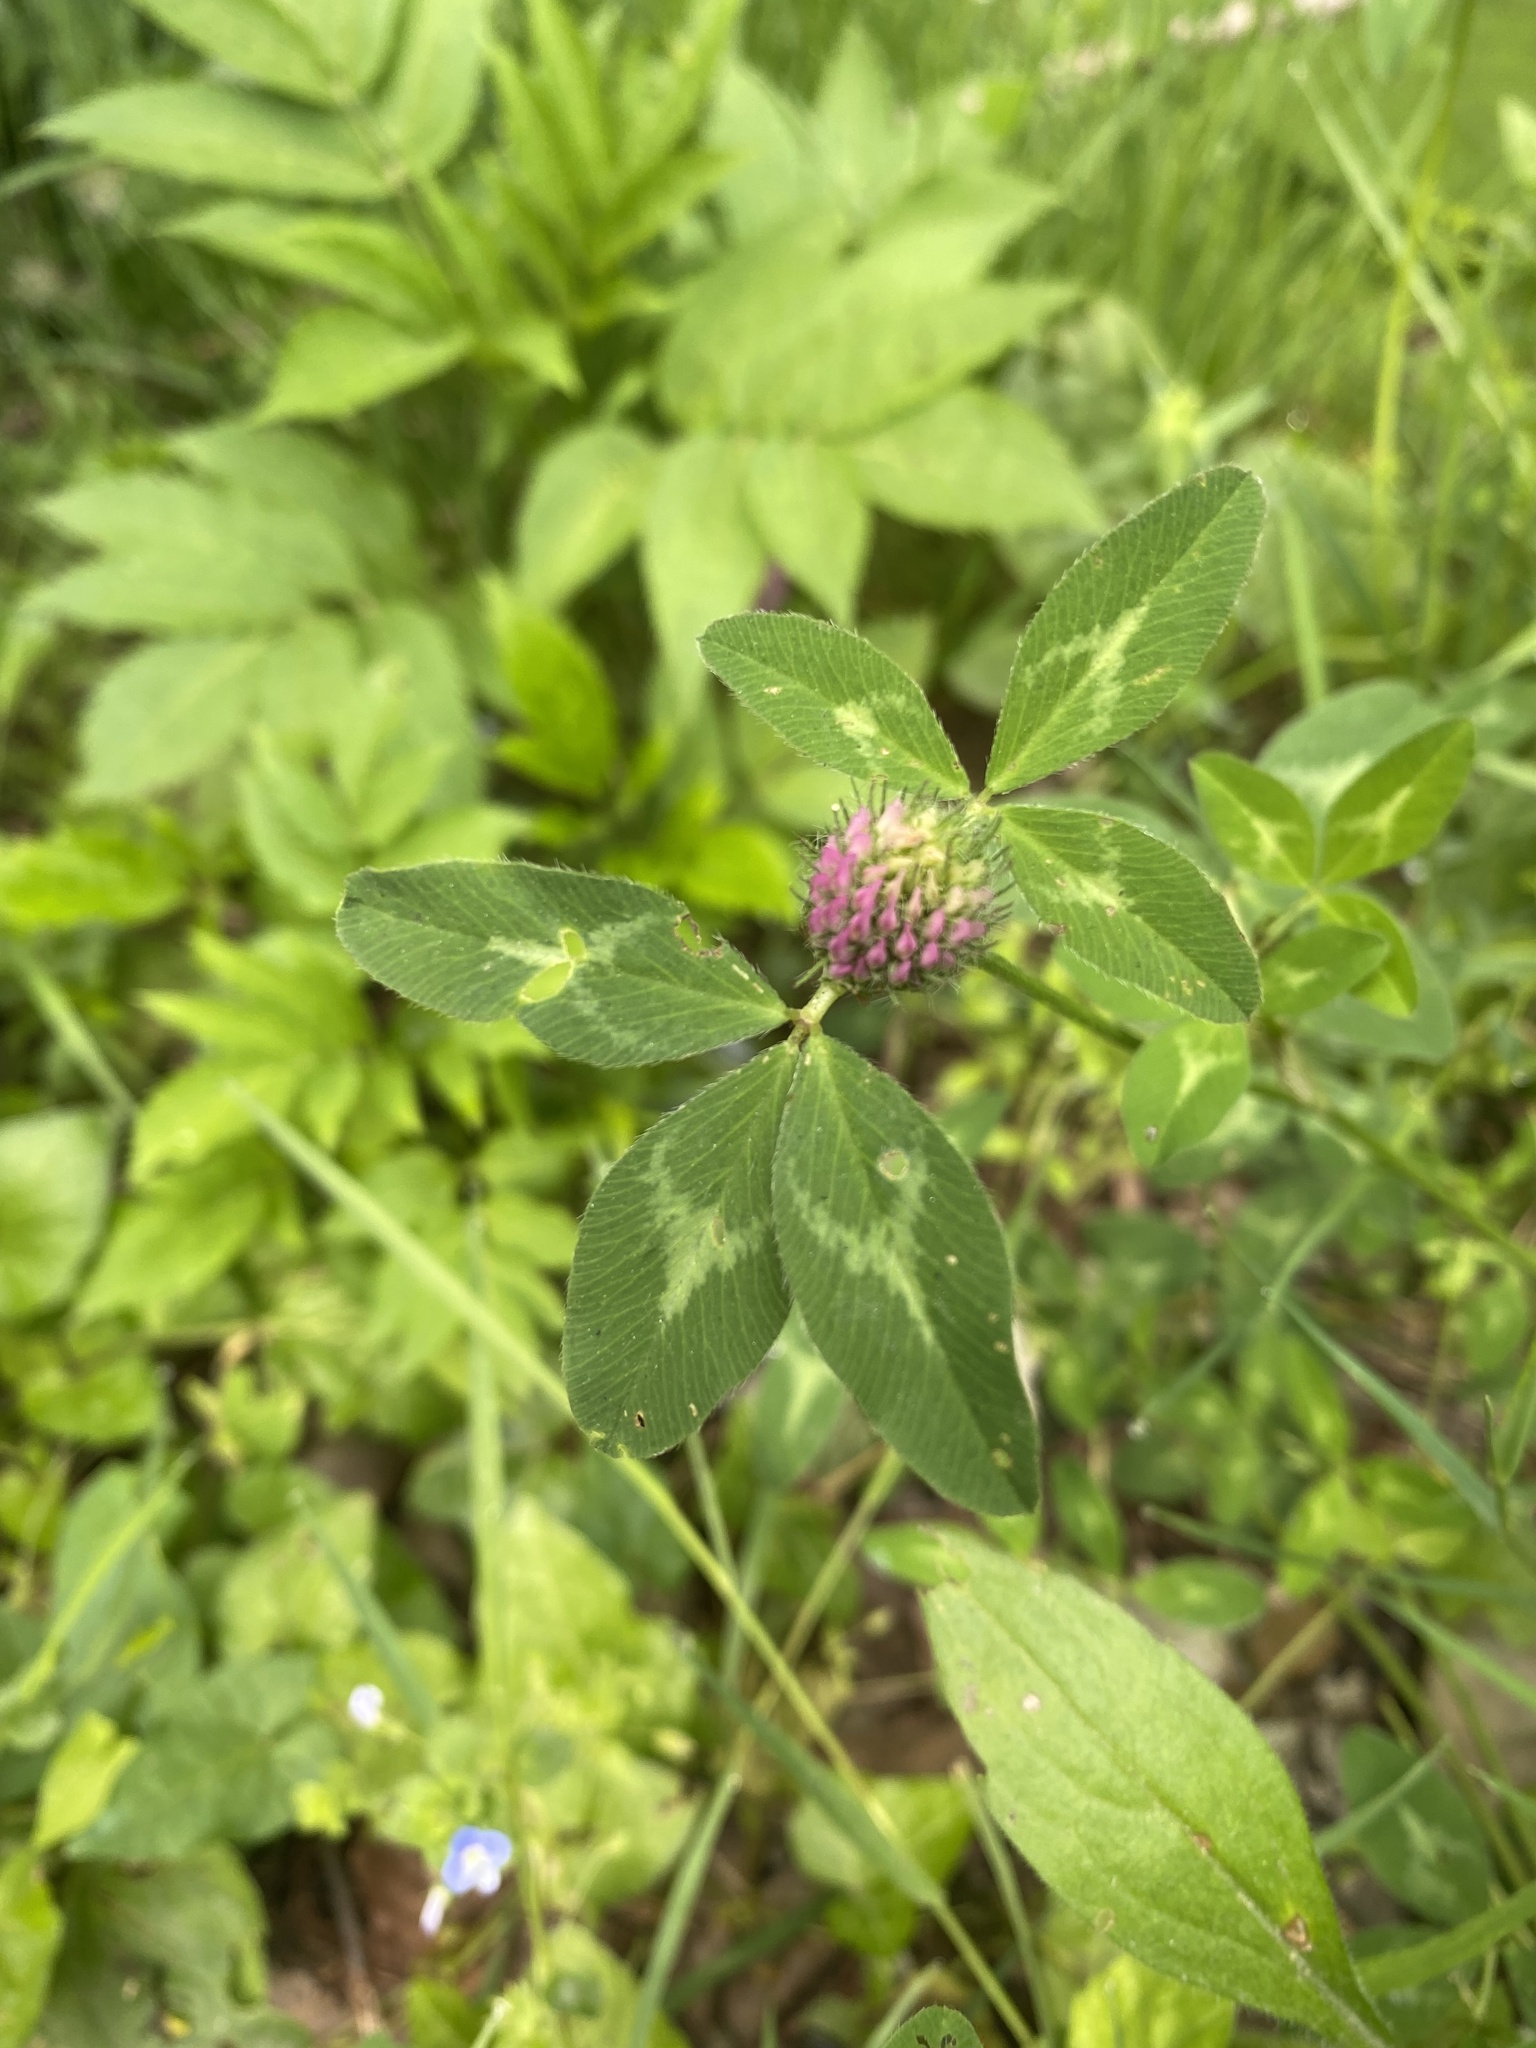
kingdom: Plantae
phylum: Tracheophyta
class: Magnoliopsida
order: Fabales
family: Fabaceae
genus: Trifolium
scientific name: Trifolium pratense
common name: Red clover
